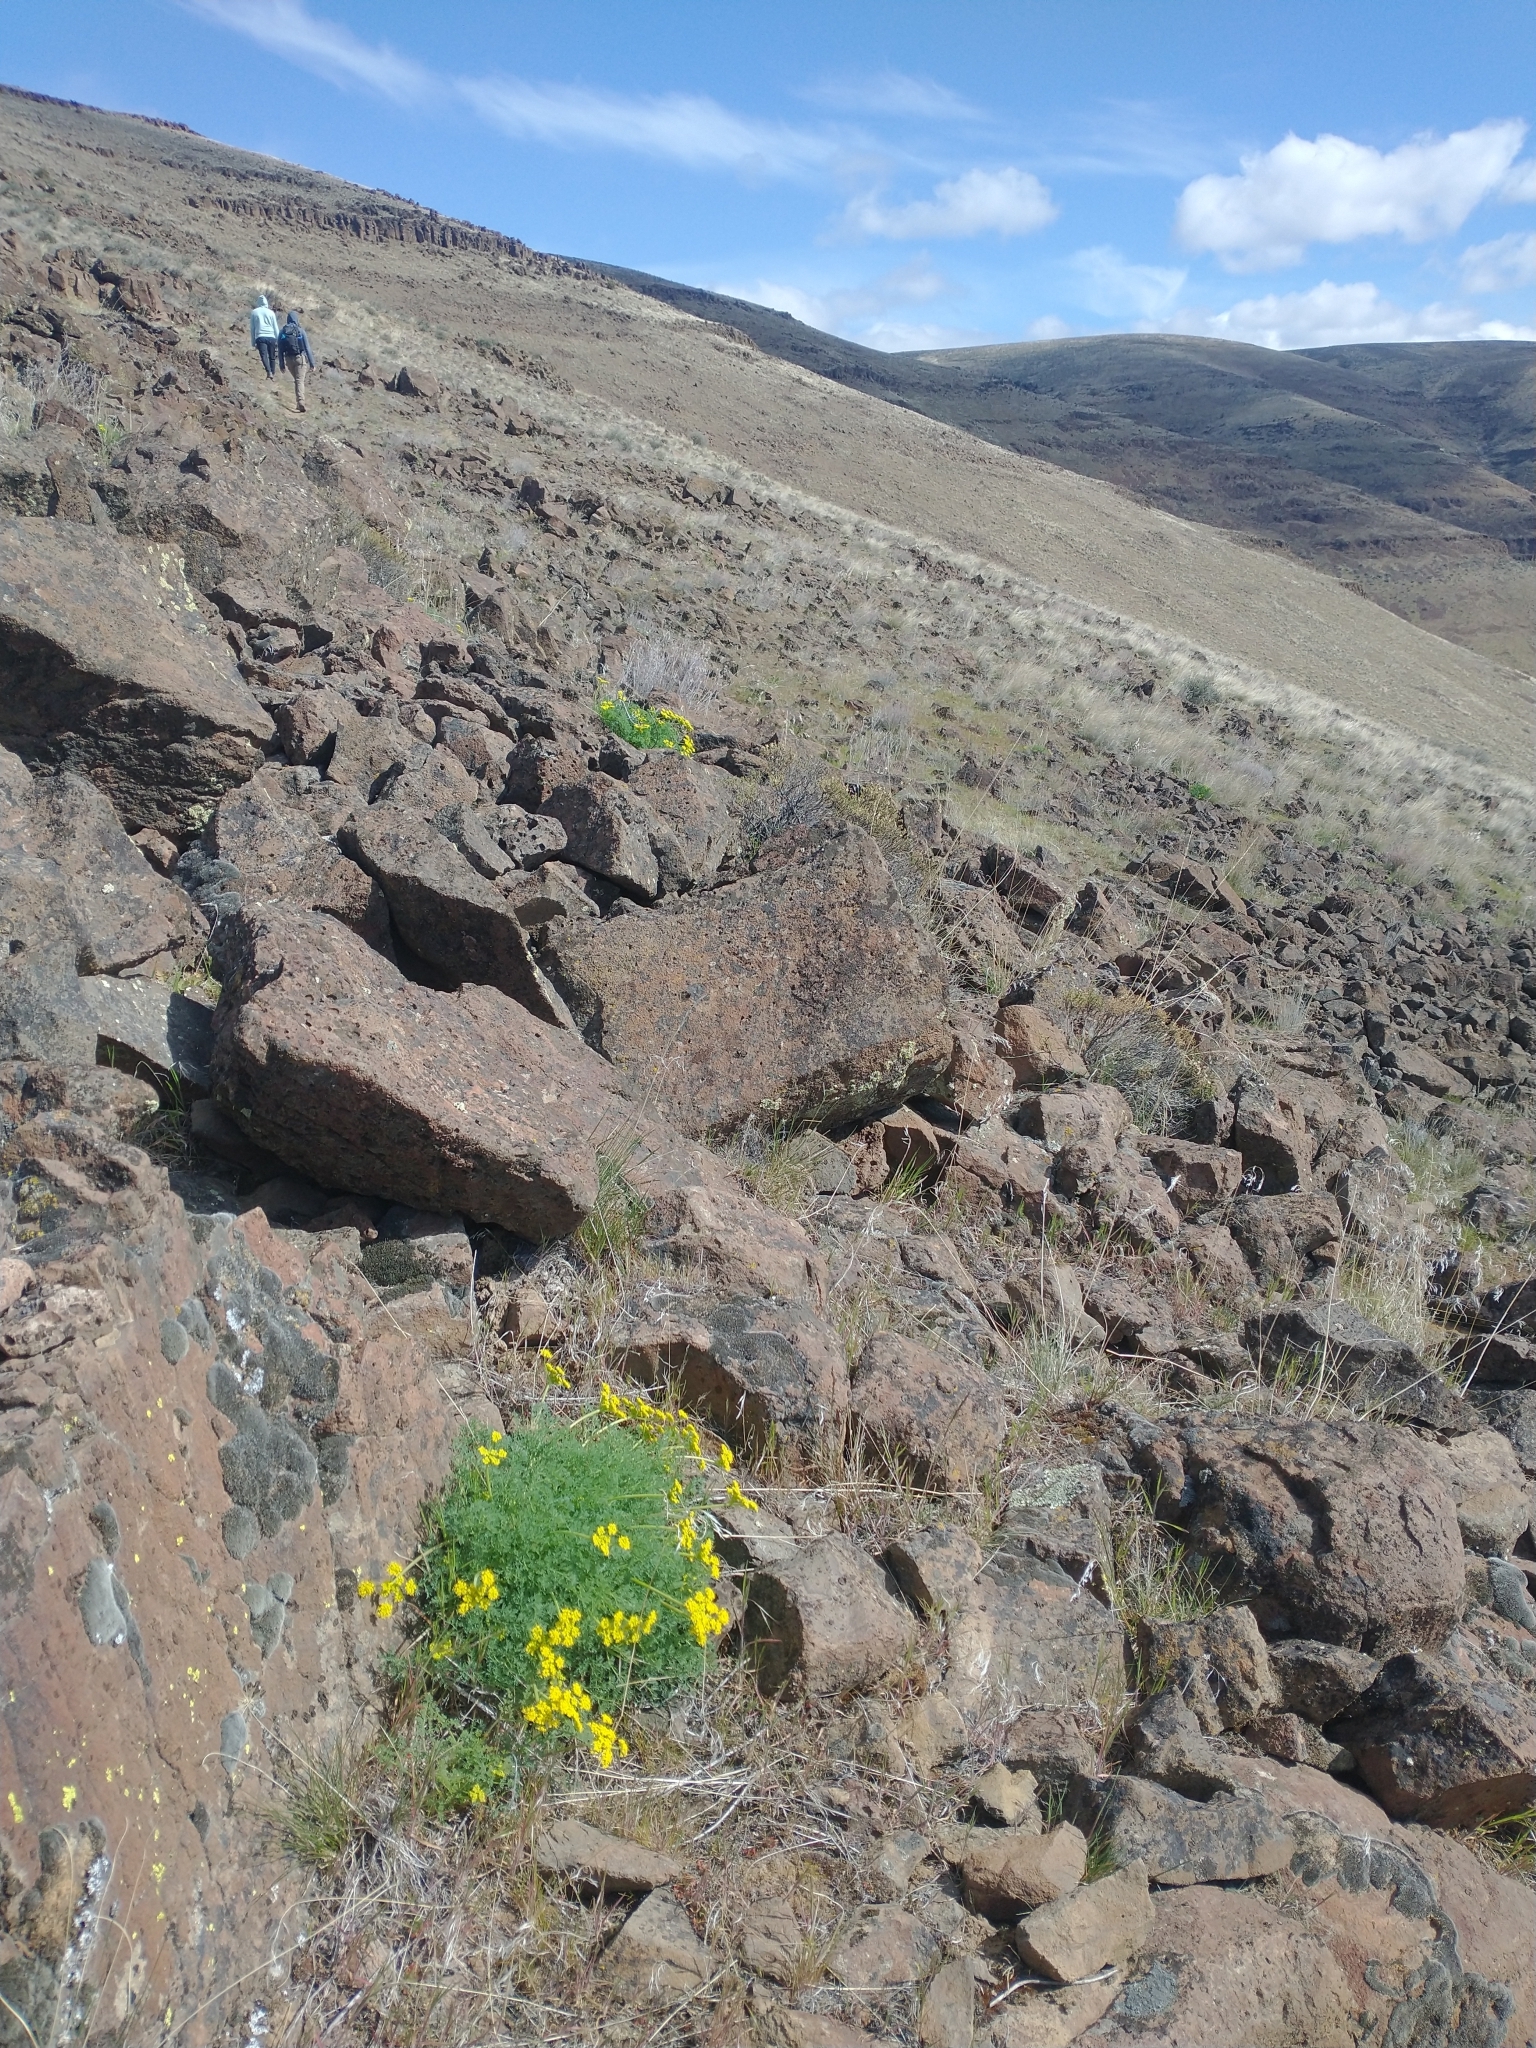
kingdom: Plantae
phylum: Tracheophyta
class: Magnoliopsida
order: Apiales
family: Apiaceae
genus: Lomatium
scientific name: Lomatium papilioniferum
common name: Butterfly lomatium
